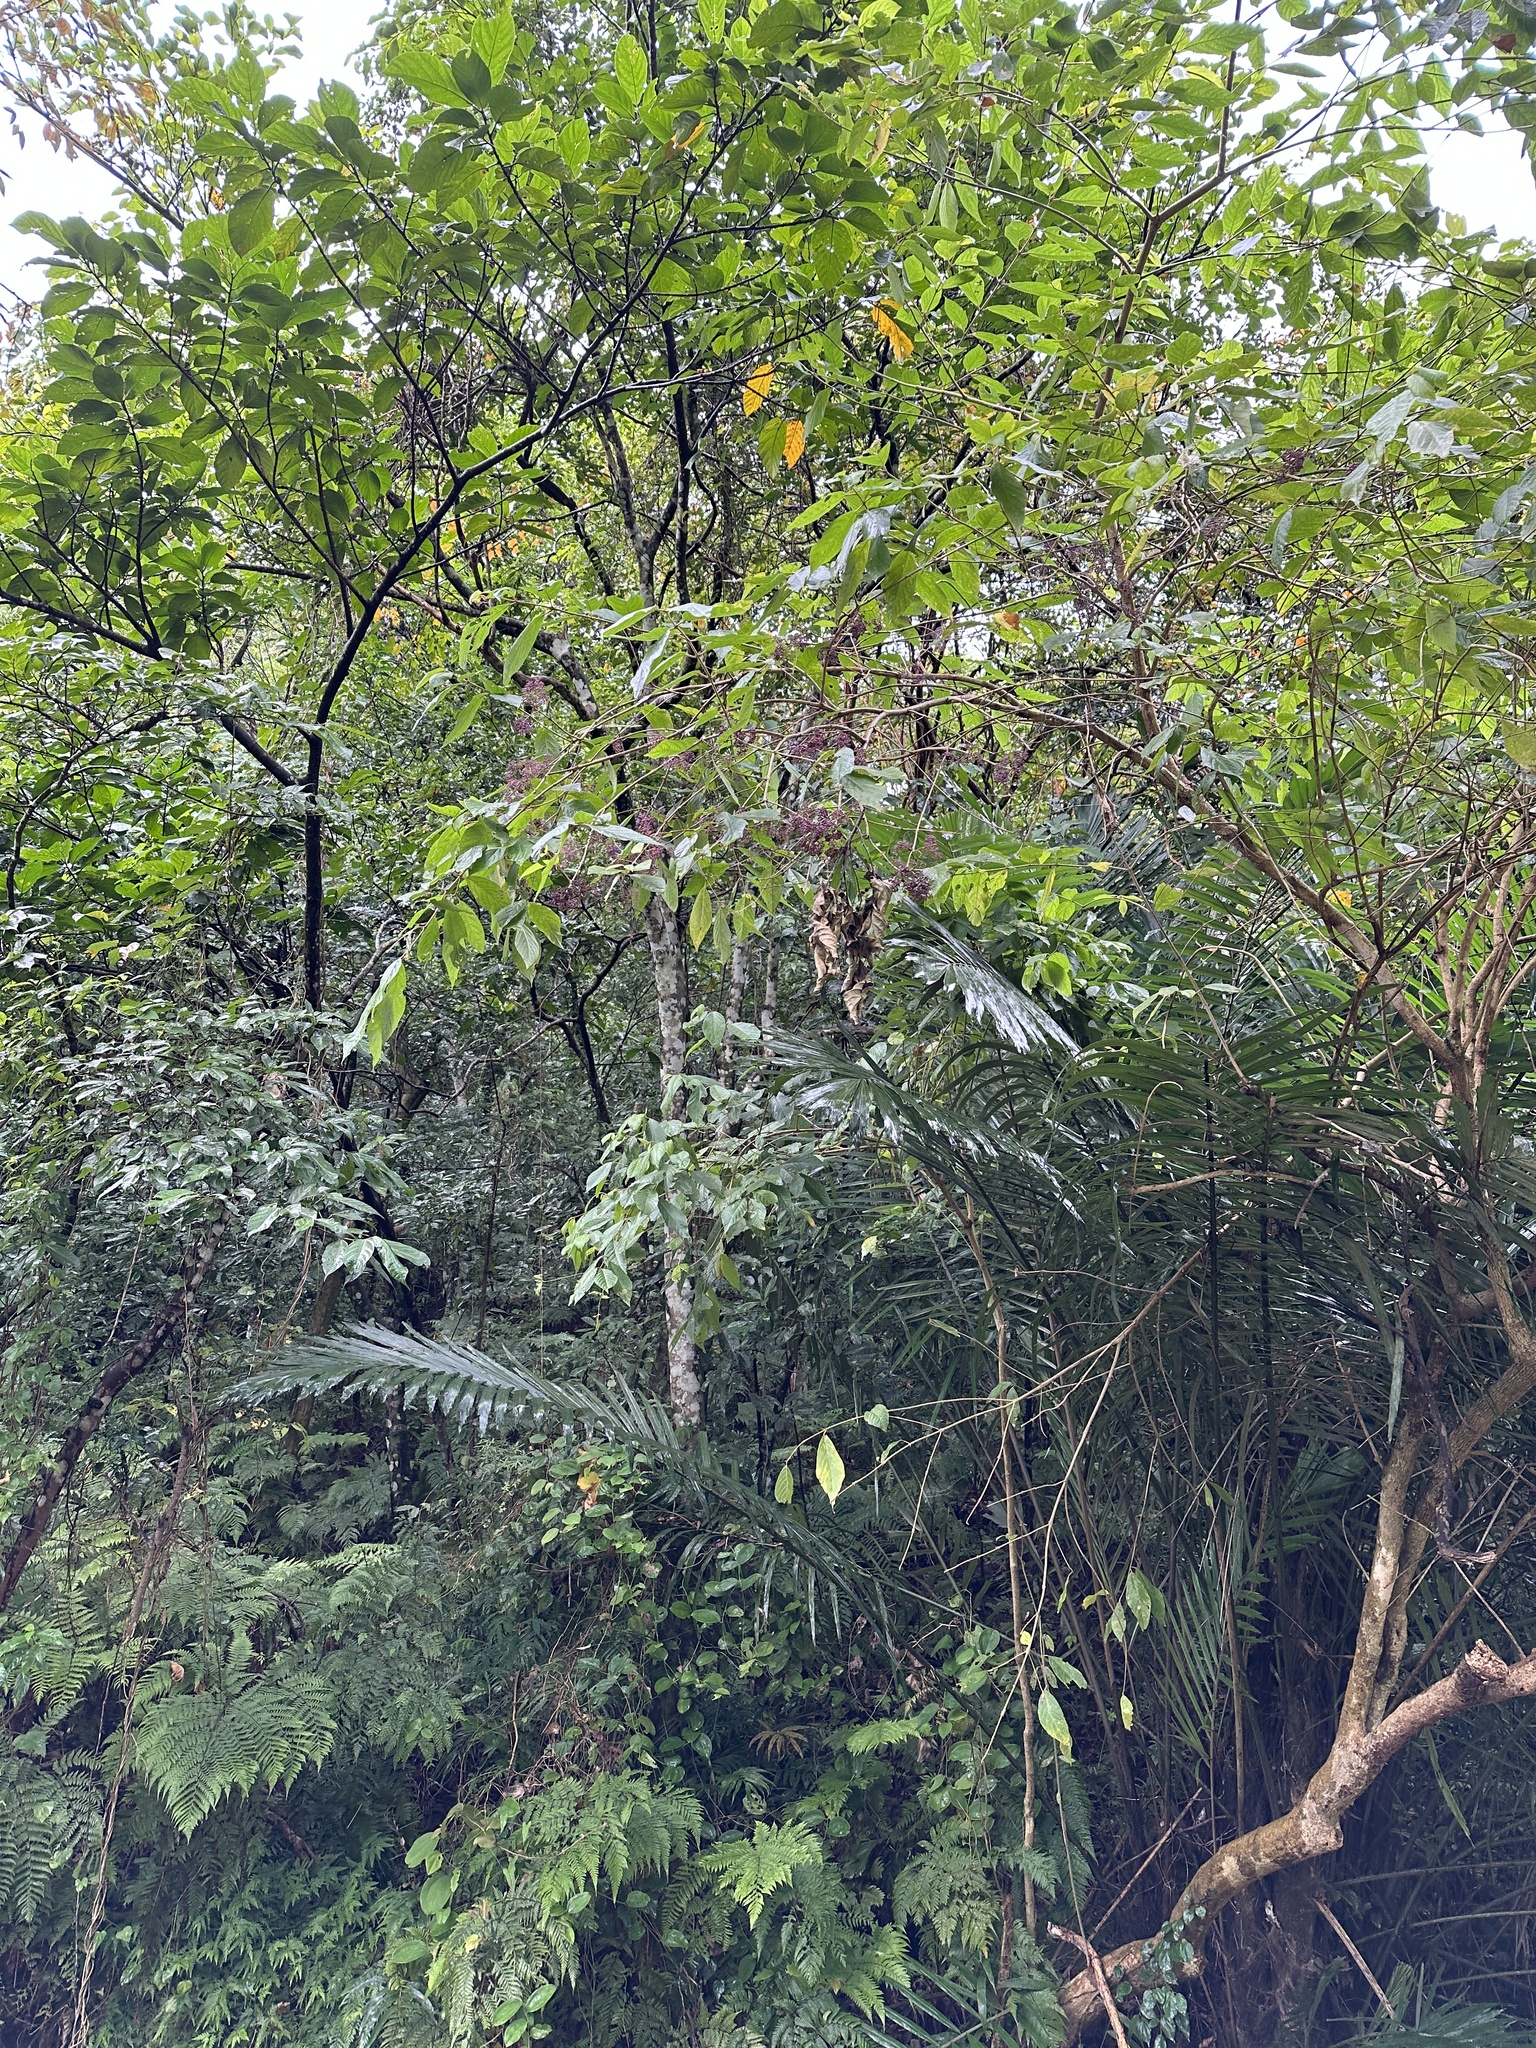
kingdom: Plantae
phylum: Tracheophyta
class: Magnoliopsida
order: Lamiales
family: Lamiaceae
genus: Callicarpa
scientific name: Callicarpa pedunculata
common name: Velvetleaf
